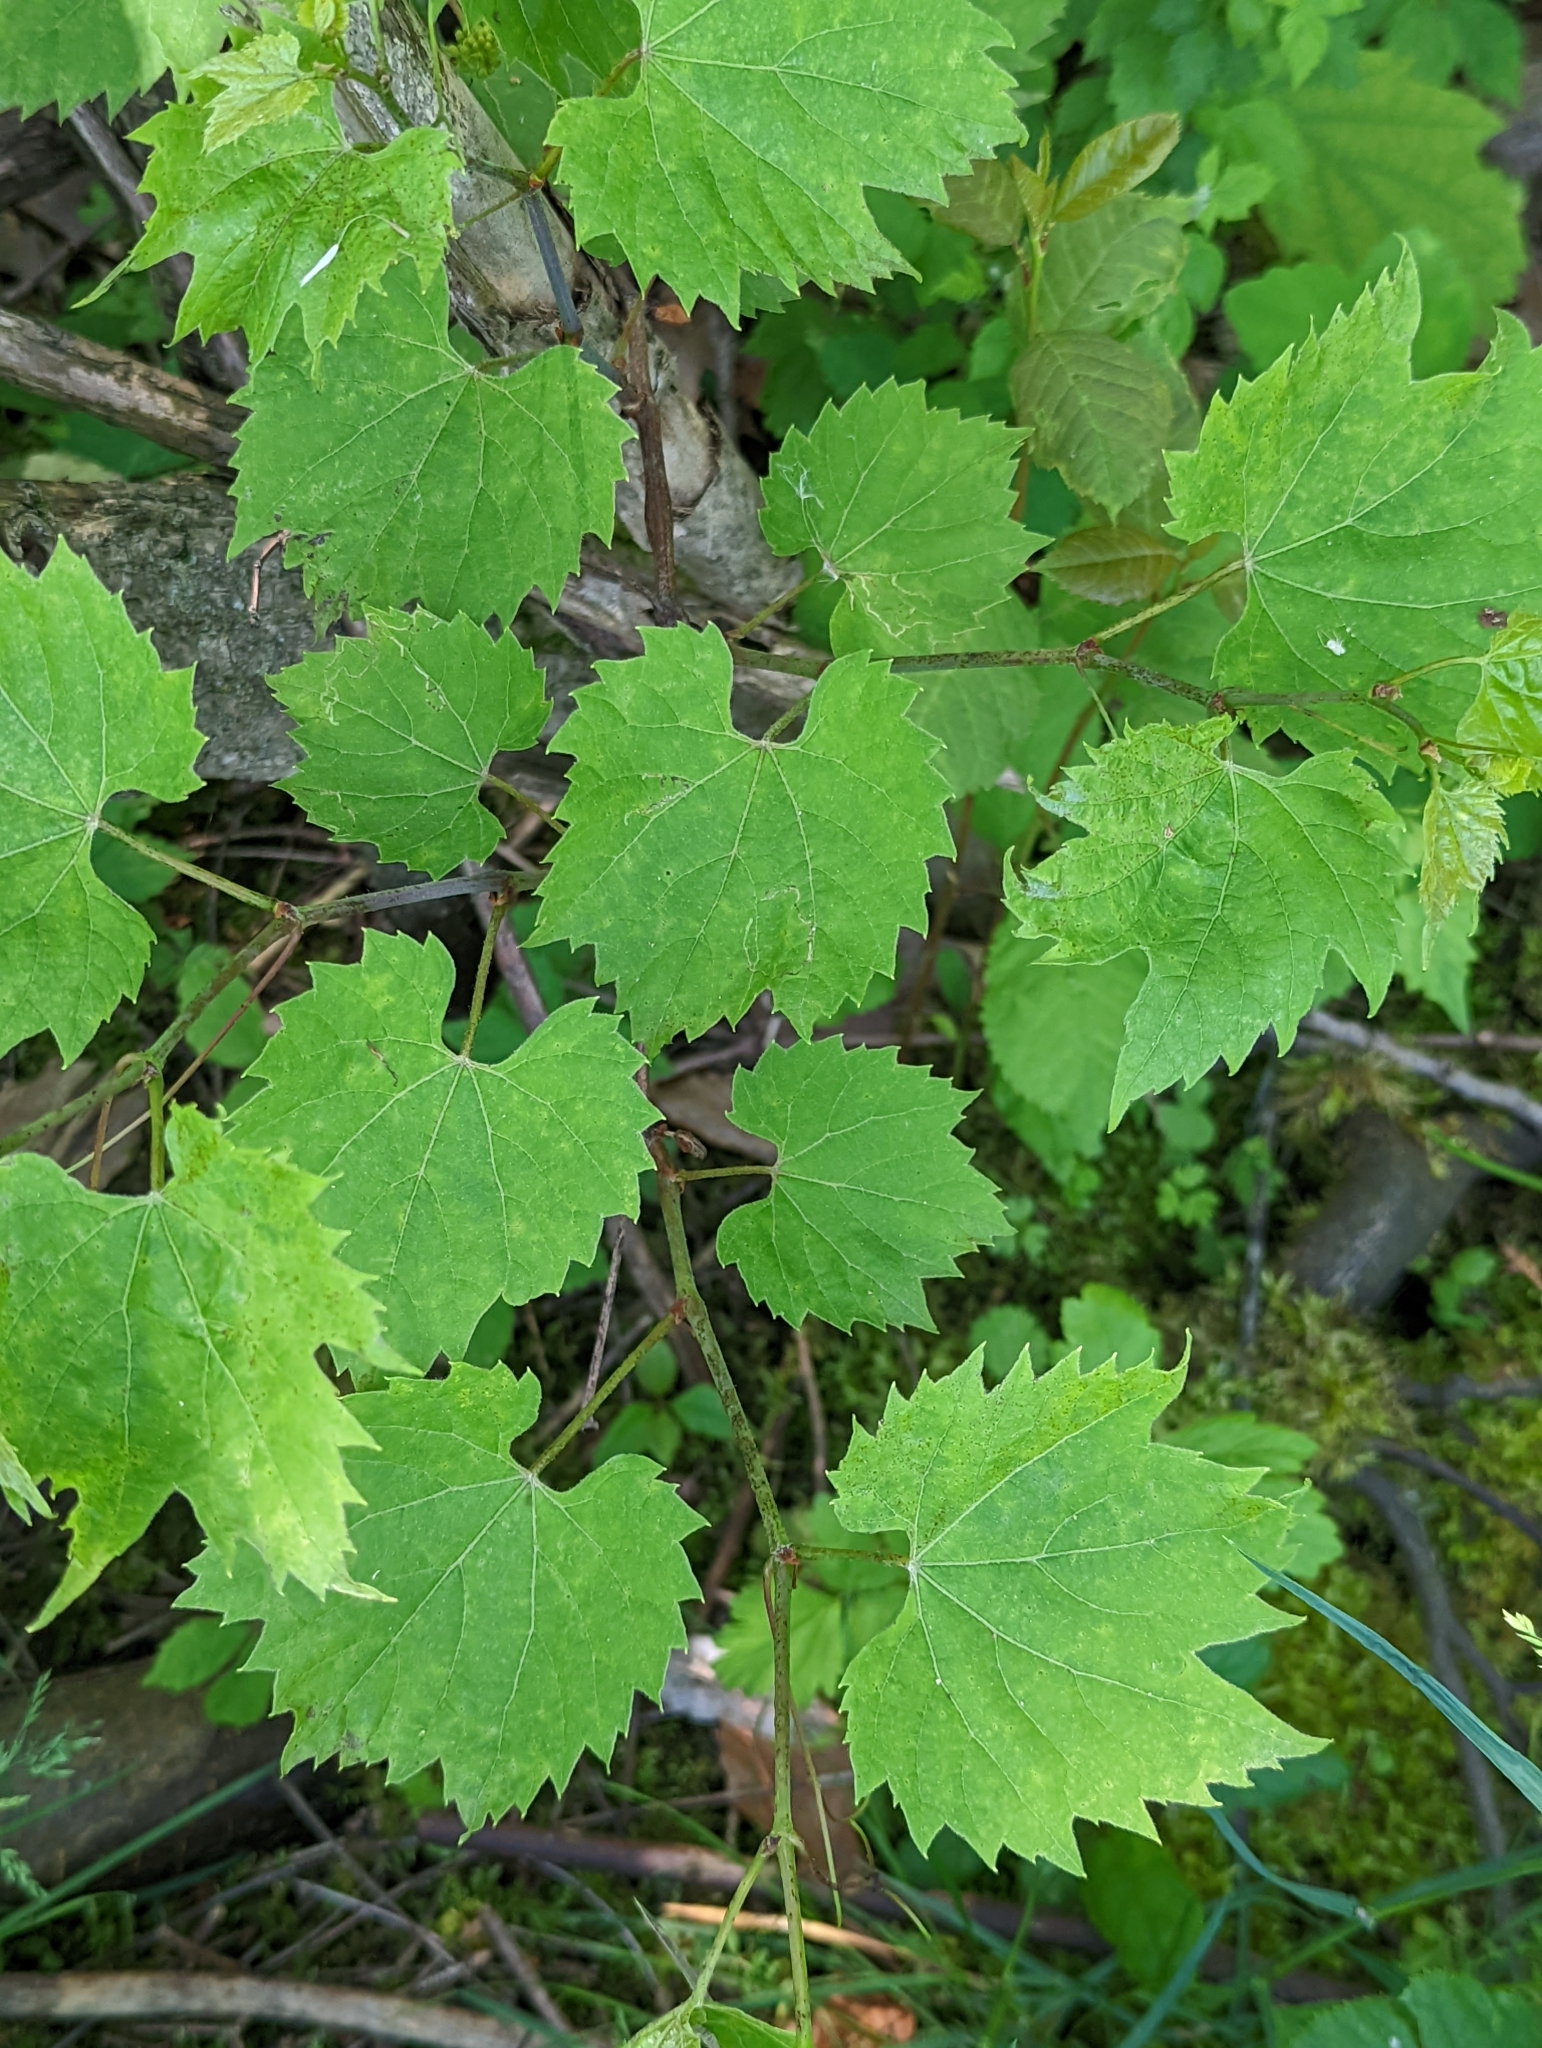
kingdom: Plantae
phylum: Tracheophyta
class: Magnoliopsida
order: Vitales
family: Vitaceae
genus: Vitis
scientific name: Vitis riparia
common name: Frost grape
